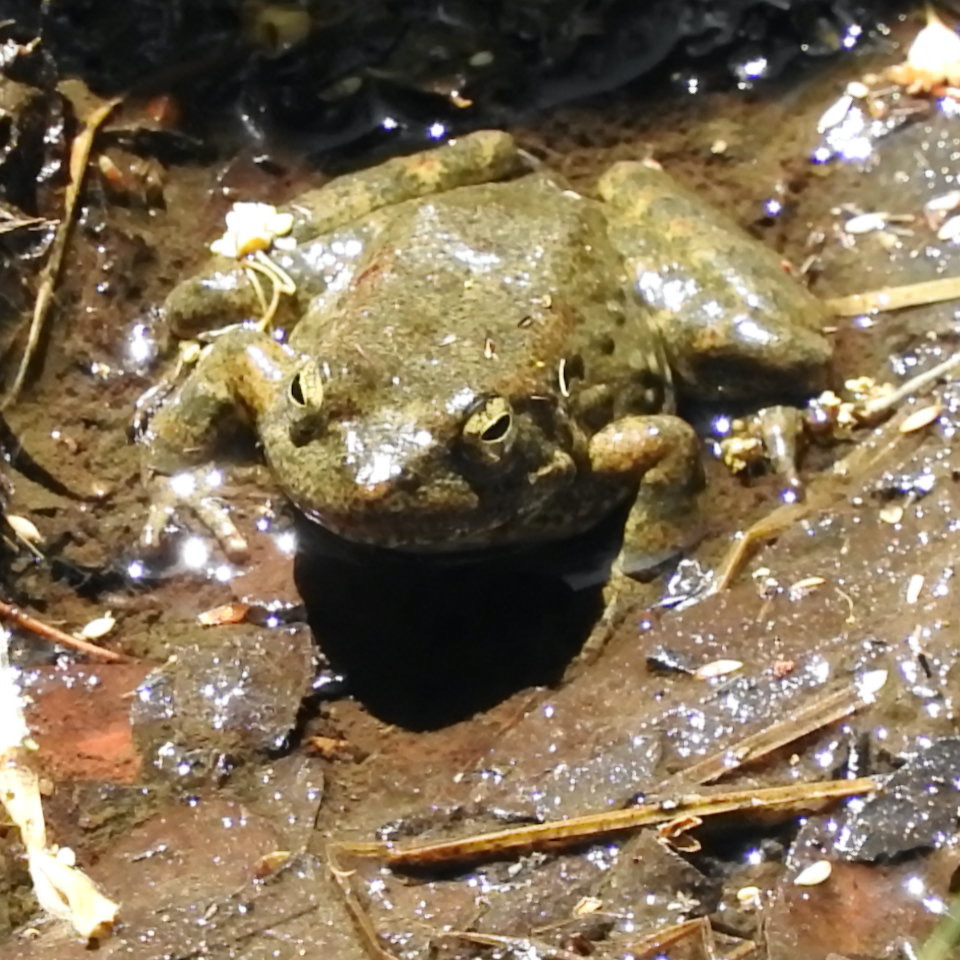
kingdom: Animalia
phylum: Chordata
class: Amphibia
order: Anura
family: Ranidae
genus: Rana
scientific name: Rana boylii
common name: Foothill yellow-legged frog
